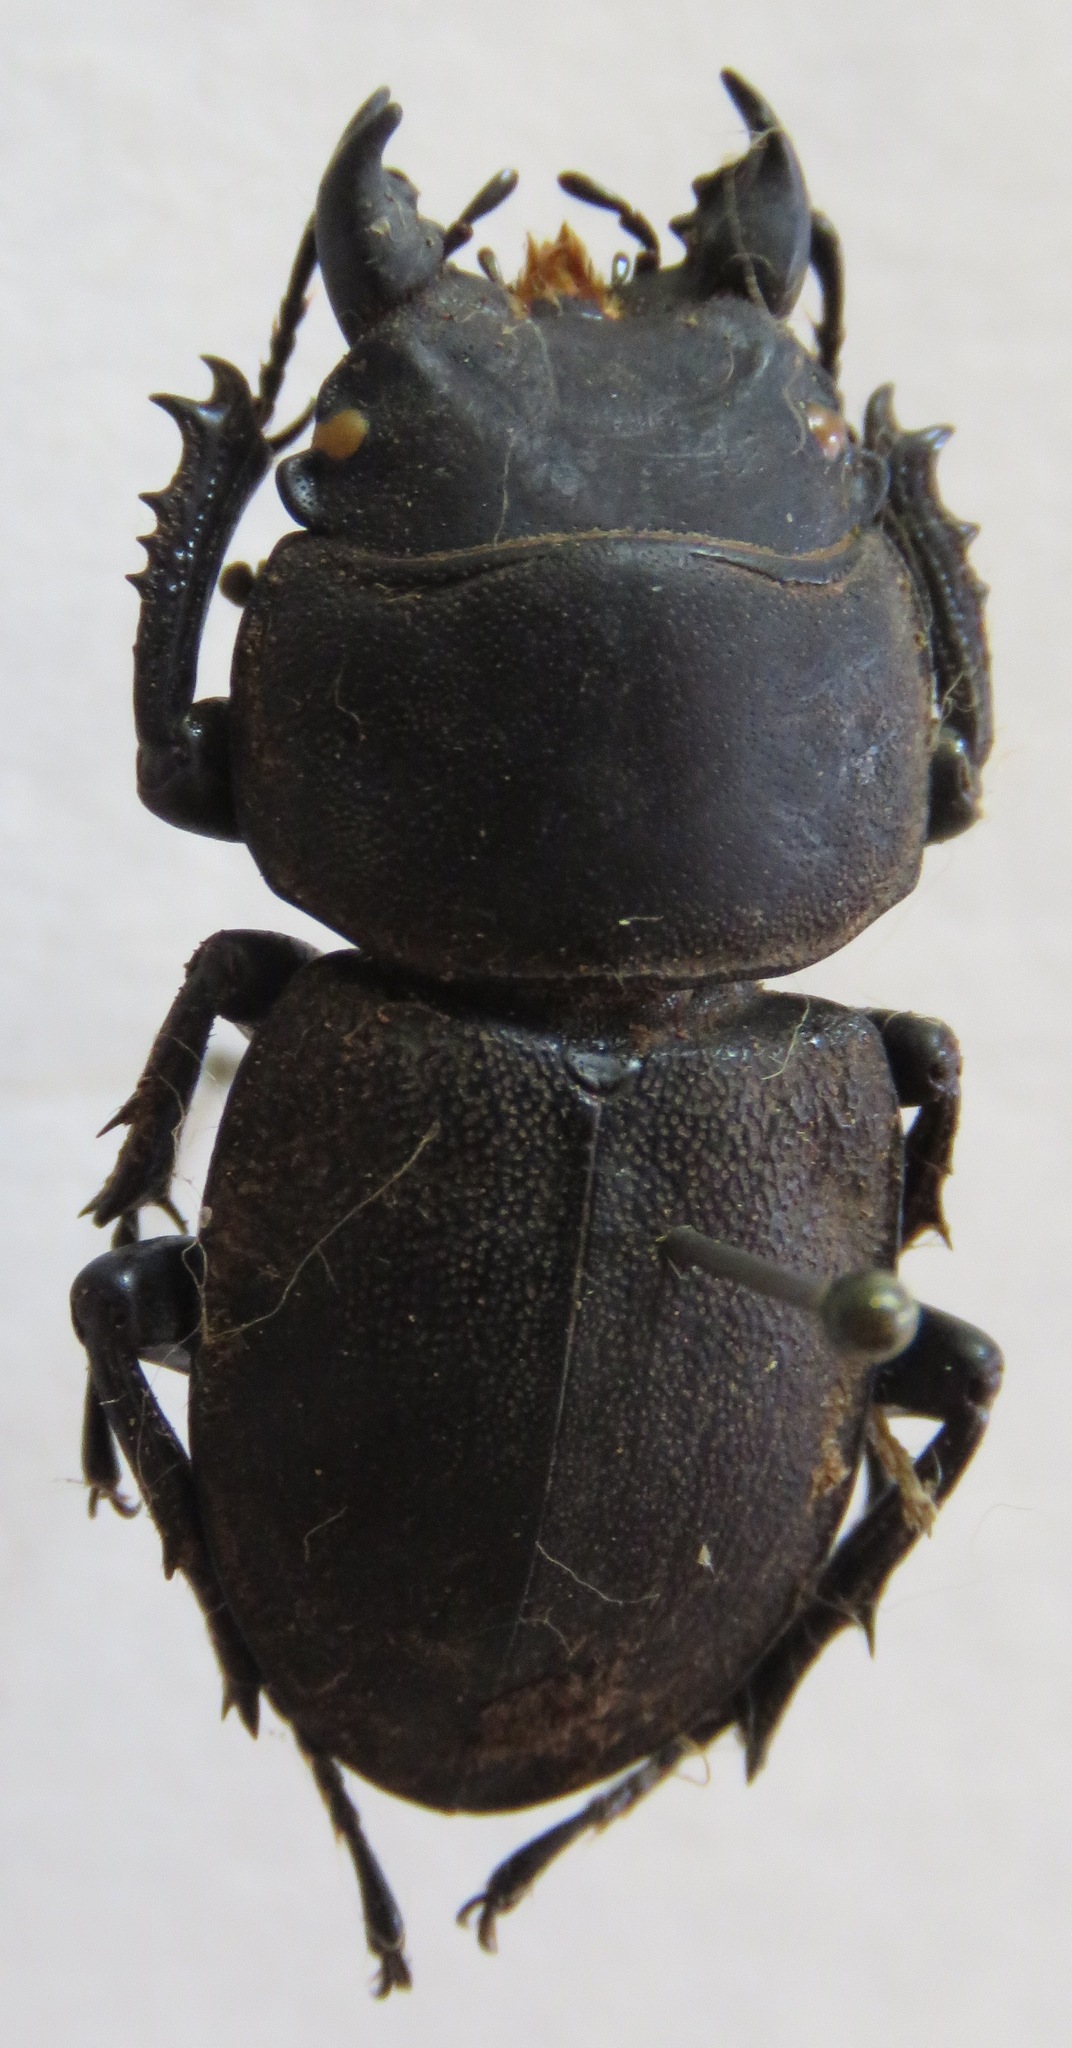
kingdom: Animalia
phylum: Arthropoda
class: Insecta
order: Coleoptera
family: Lucanidae
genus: Apterodorcus
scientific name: Apterodorcus bacchus
